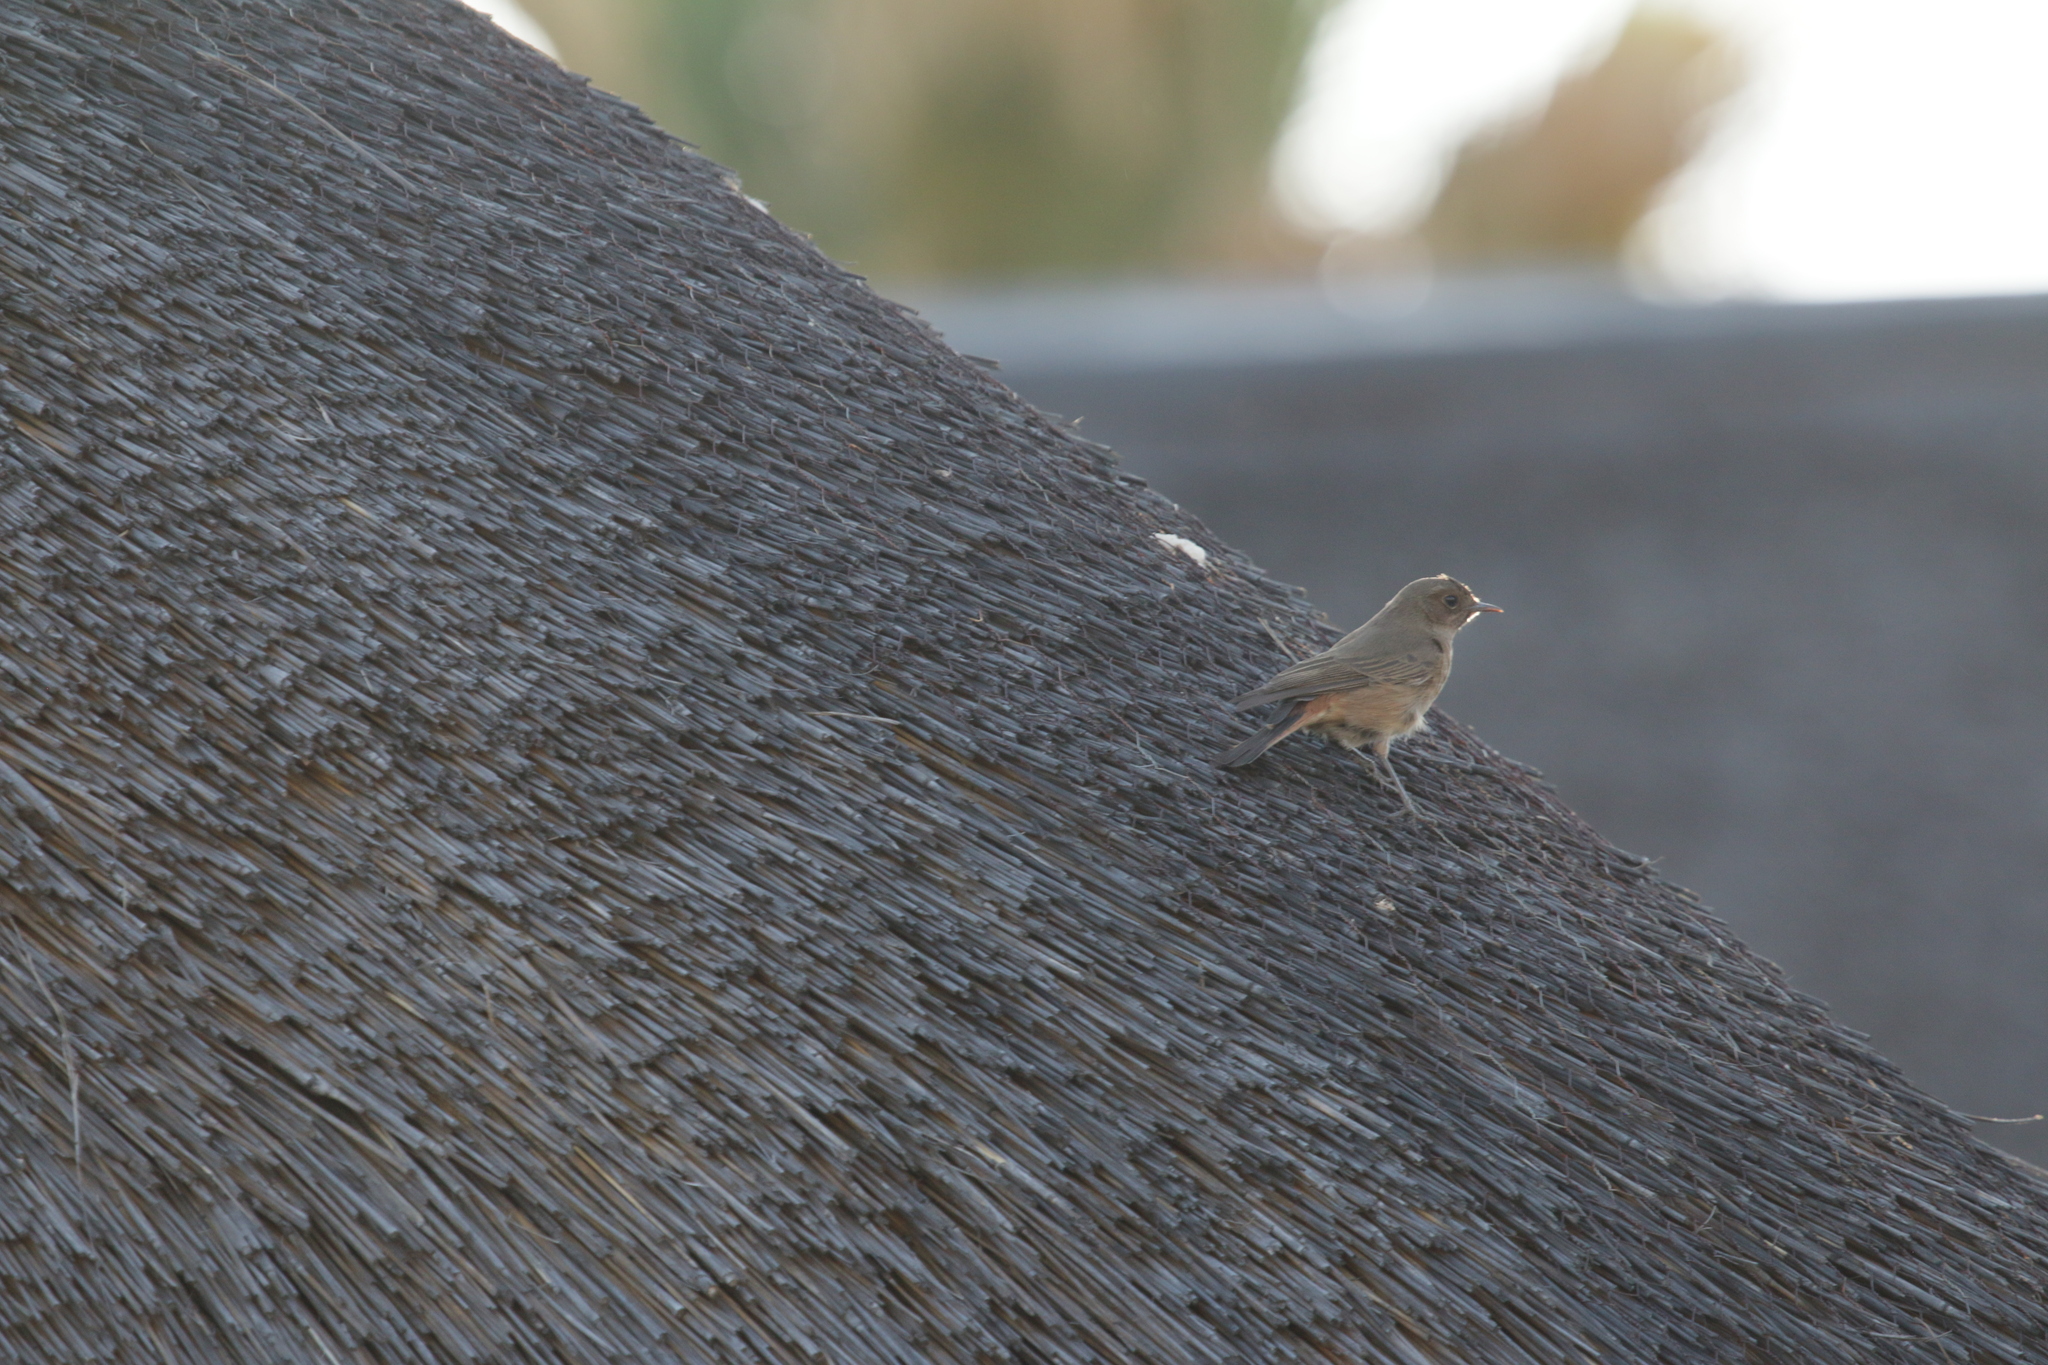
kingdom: Animalia
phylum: Chordata
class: Aves
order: Passeriformes
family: Muscicapidae
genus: Oenanthe
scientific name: Oenanthe familiaris
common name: Familiar chat
